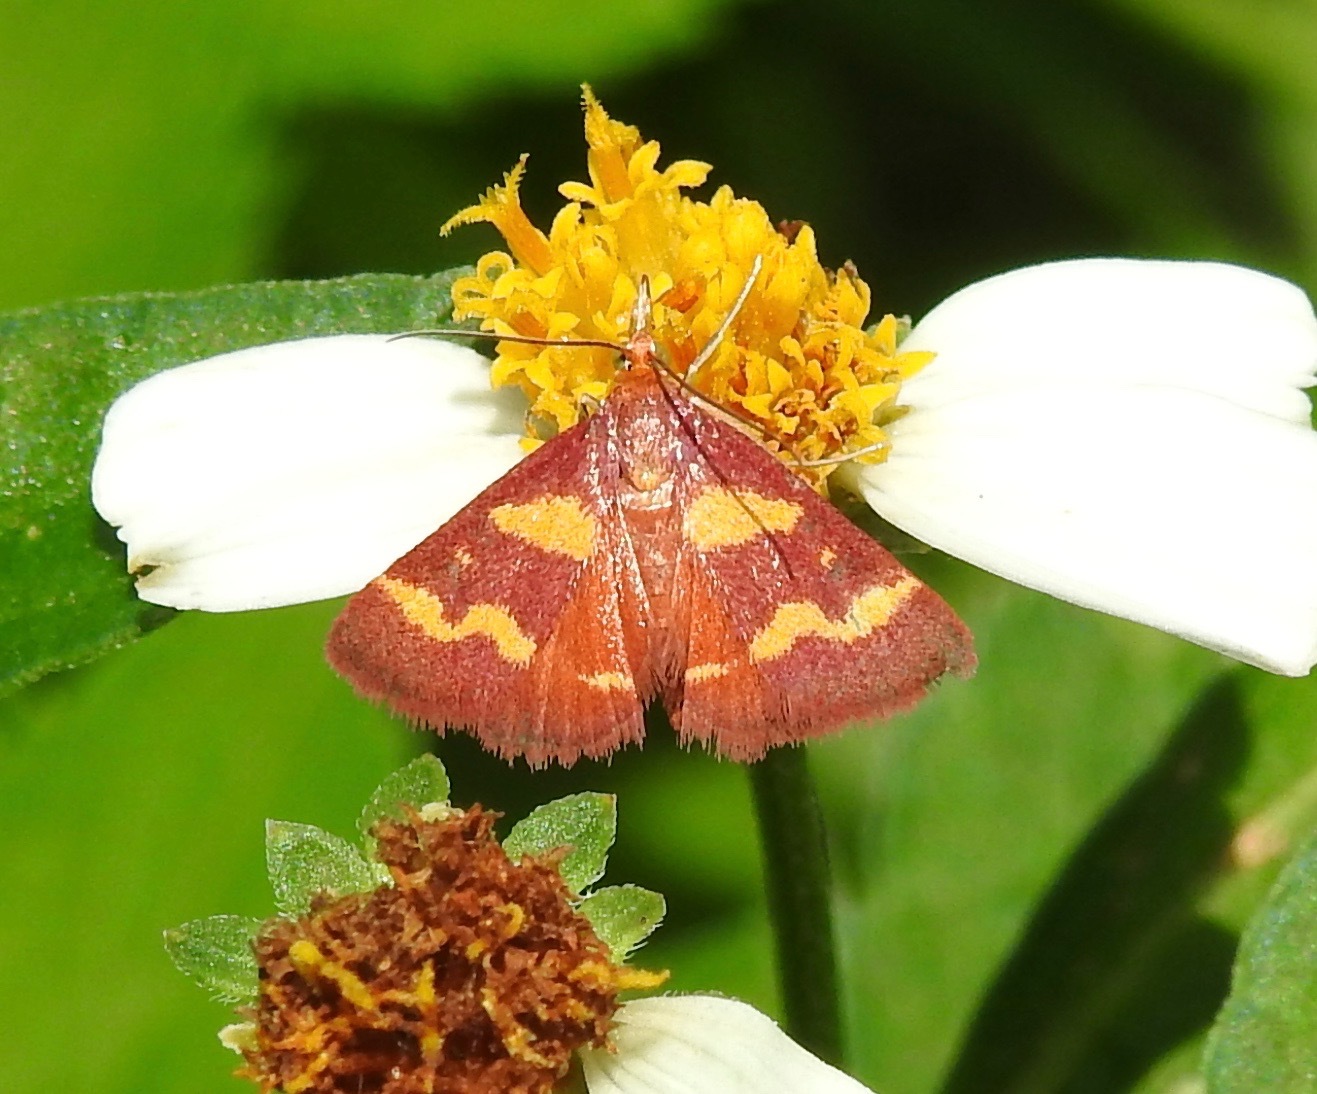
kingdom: Animalia
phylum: Arthropoda
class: Insecta
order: Lepidoptera
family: Crambidae
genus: Pyrausta
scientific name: Pyrausta tyralis
